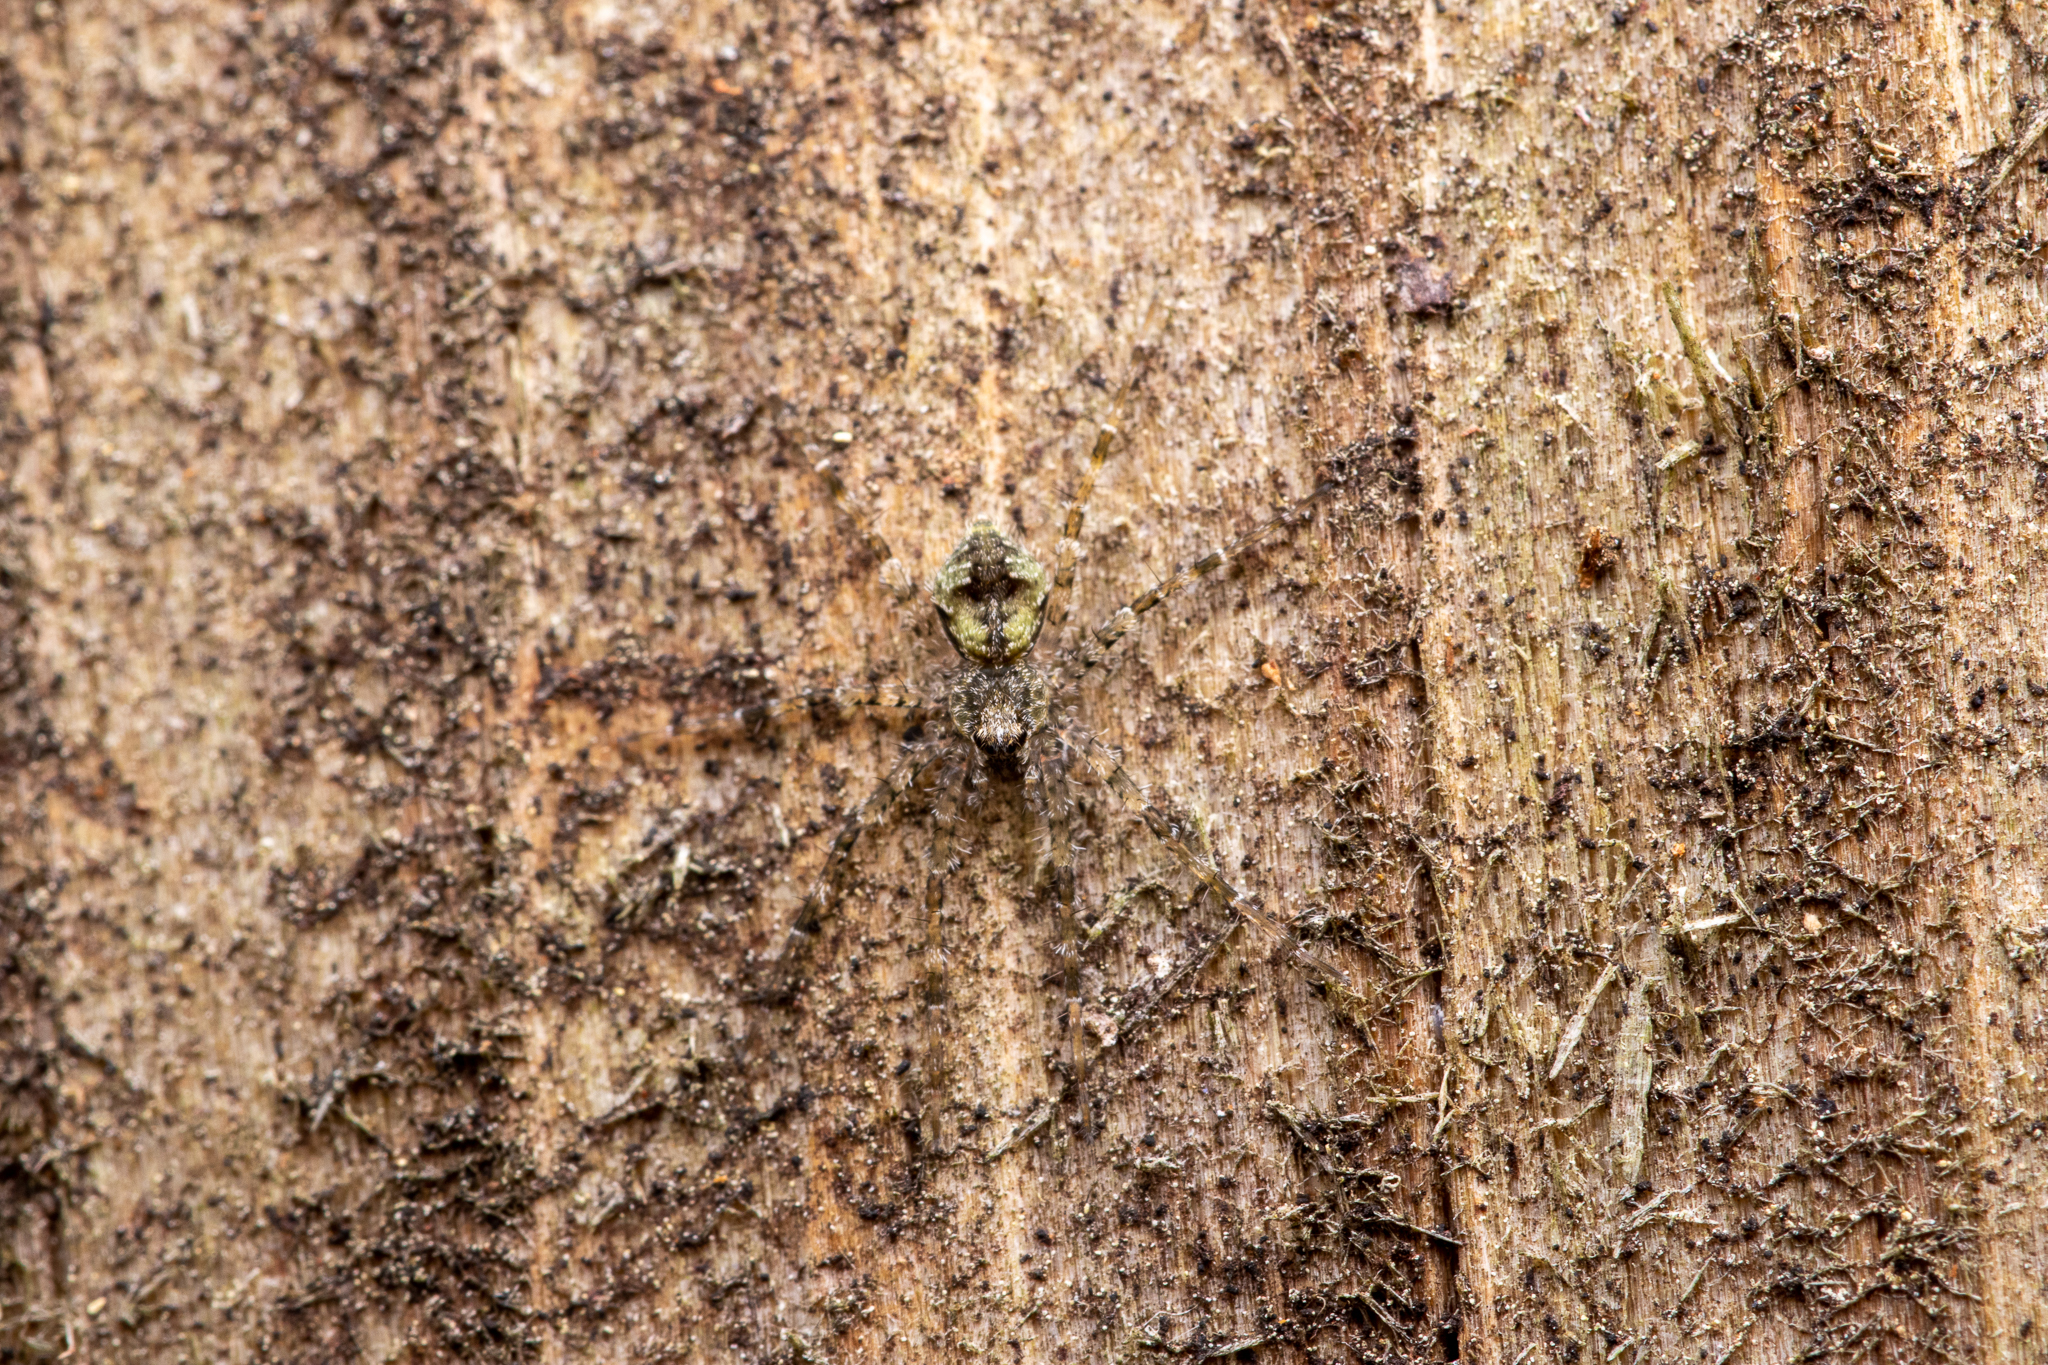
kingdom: Animalia
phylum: Arthropoda
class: Arachnida
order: Araneae
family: Pisauridae
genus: Dolomedes
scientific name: Dolomedes albineus
